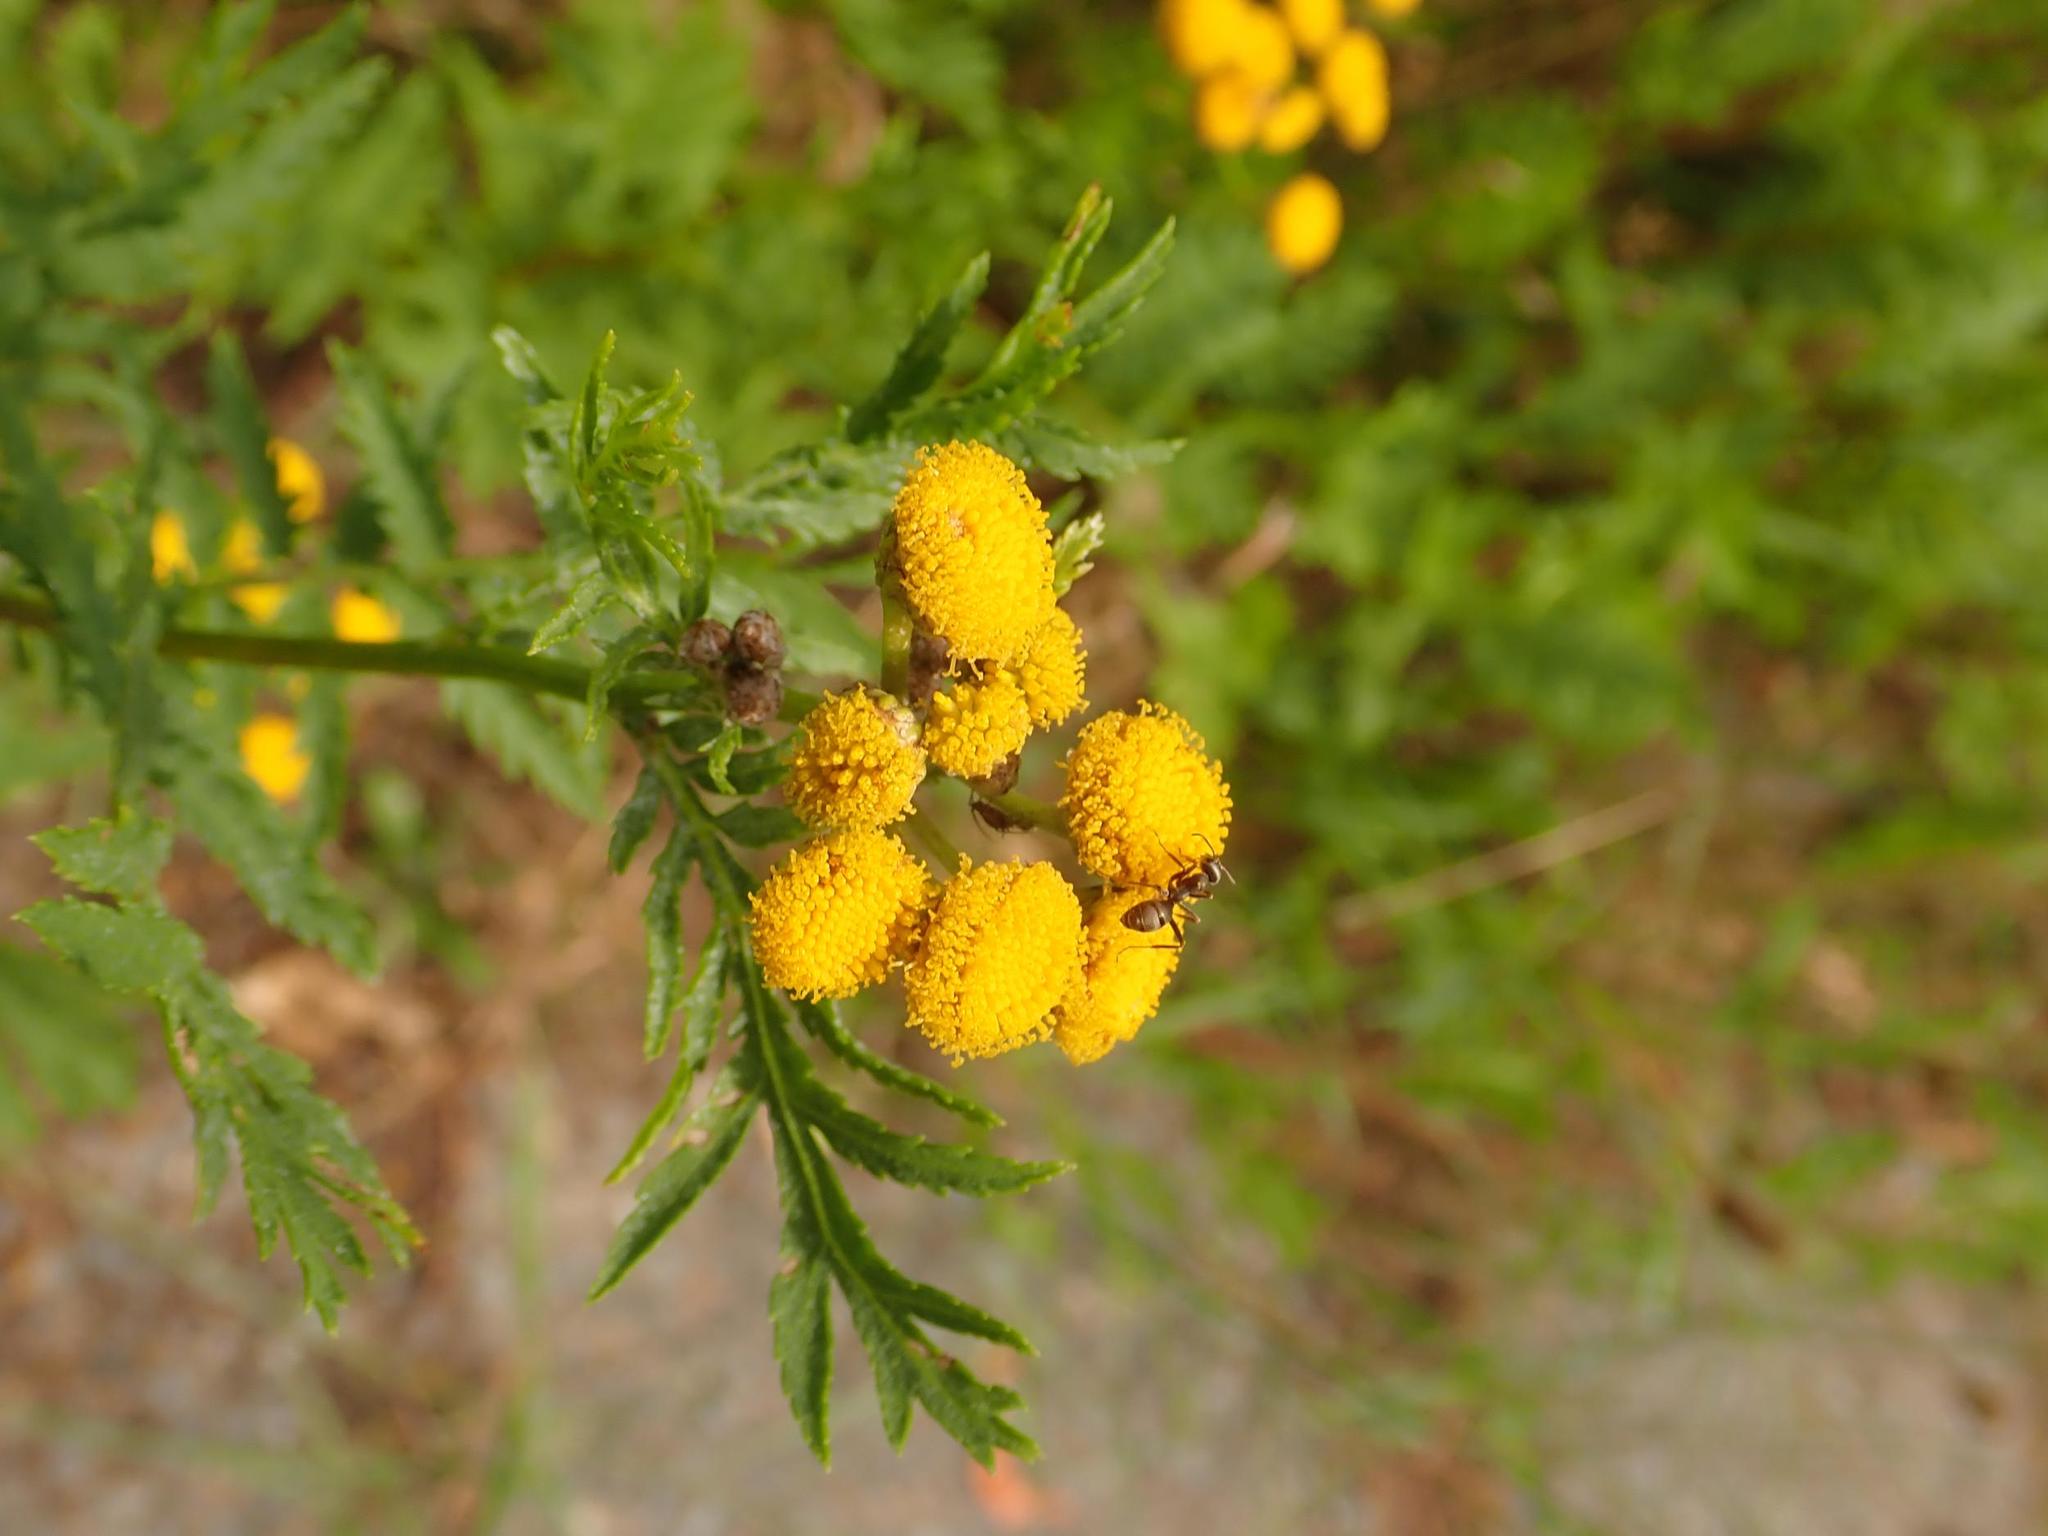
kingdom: Plantae
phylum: Tracheophyta
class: Magnoliopsida
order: Asterales
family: Asteraceae
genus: Tanacetum
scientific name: Tanacetum vulgare
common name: Common tansy
